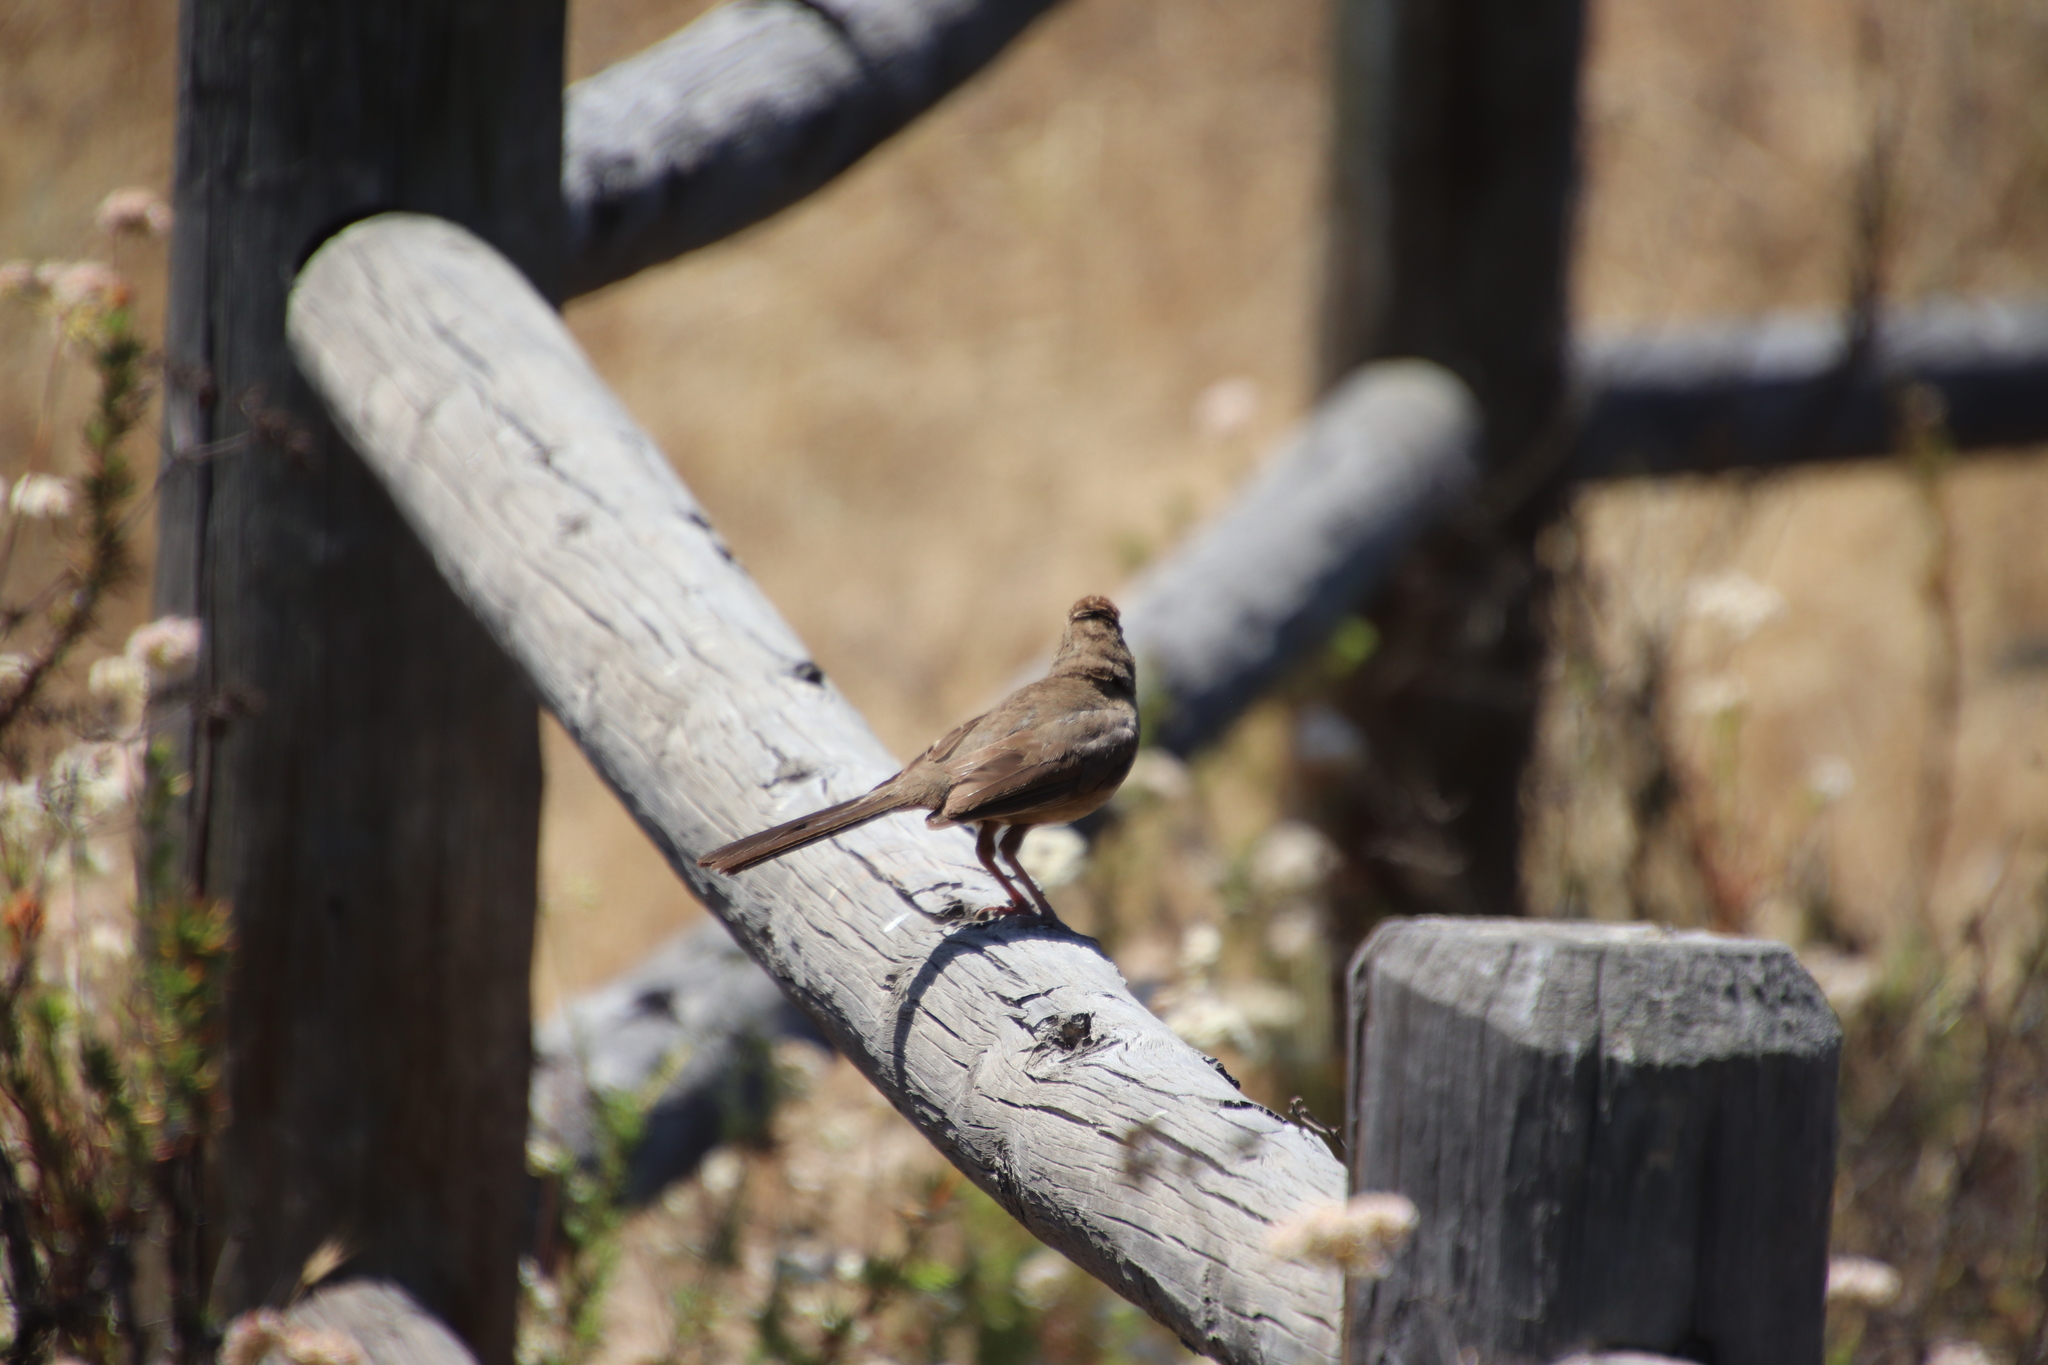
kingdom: Animalia
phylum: Chordata
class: Aves
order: Passeriformes
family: Passerellidae
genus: Melozone
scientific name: Melozone crissalis
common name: California towhee
